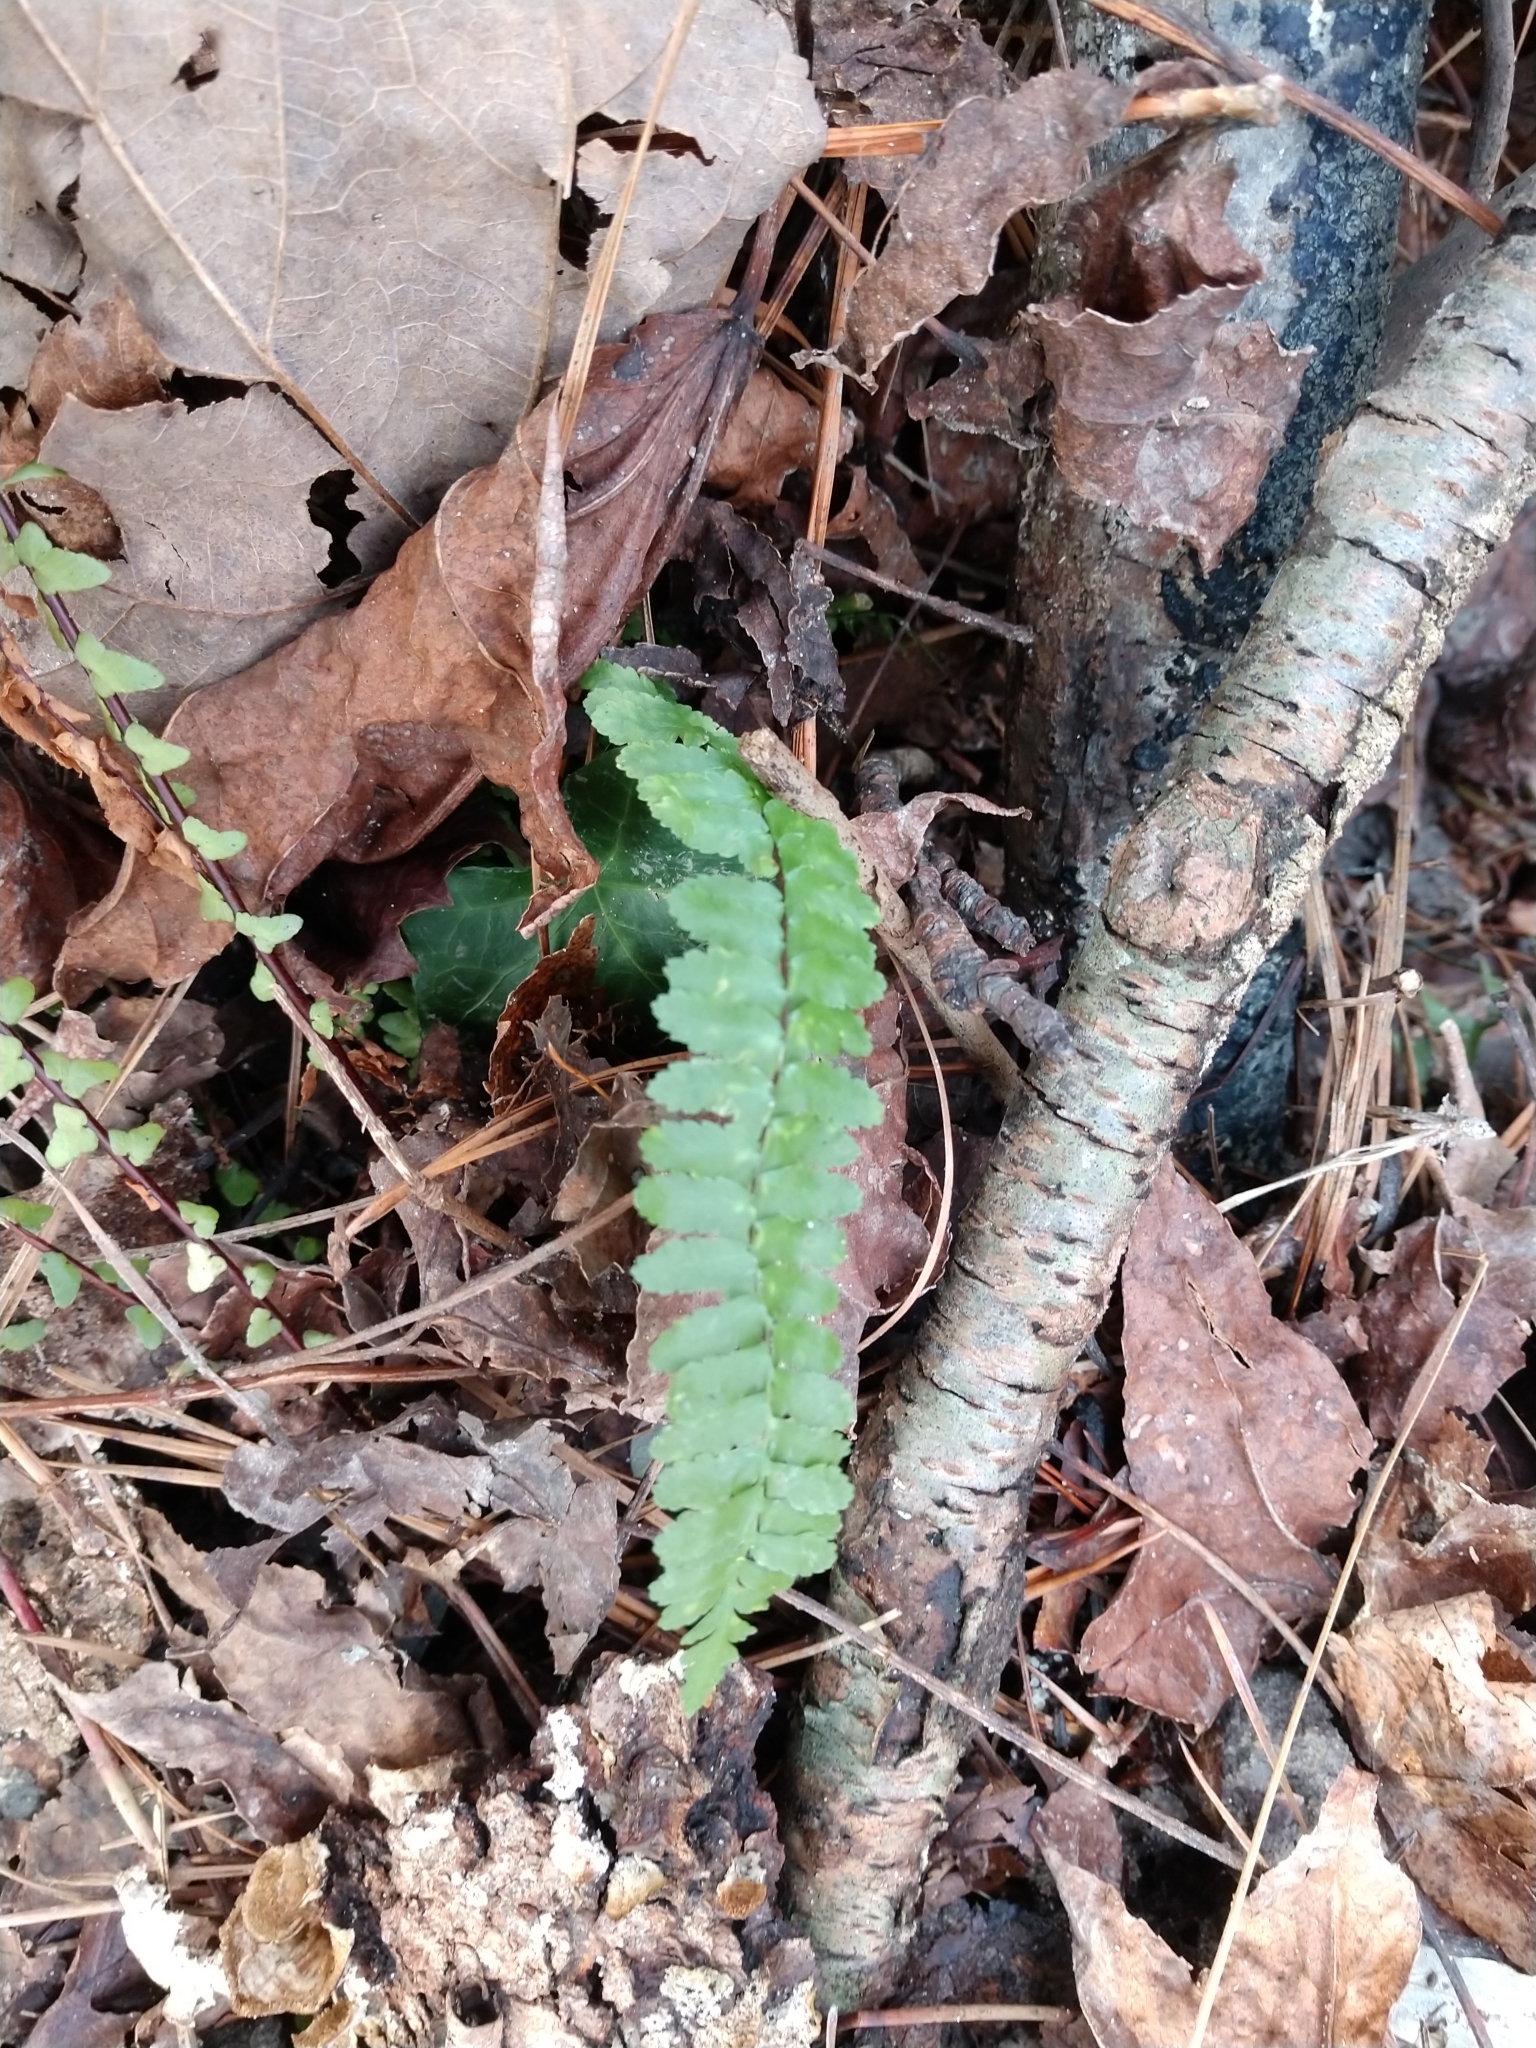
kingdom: Plantae
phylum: Tracheophyta
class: Polypodiopsida
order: Polypodiales
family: Aspleniaceae
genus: Asplenium
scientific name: Asplenium platyneuron
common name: Ebony spleenwort
